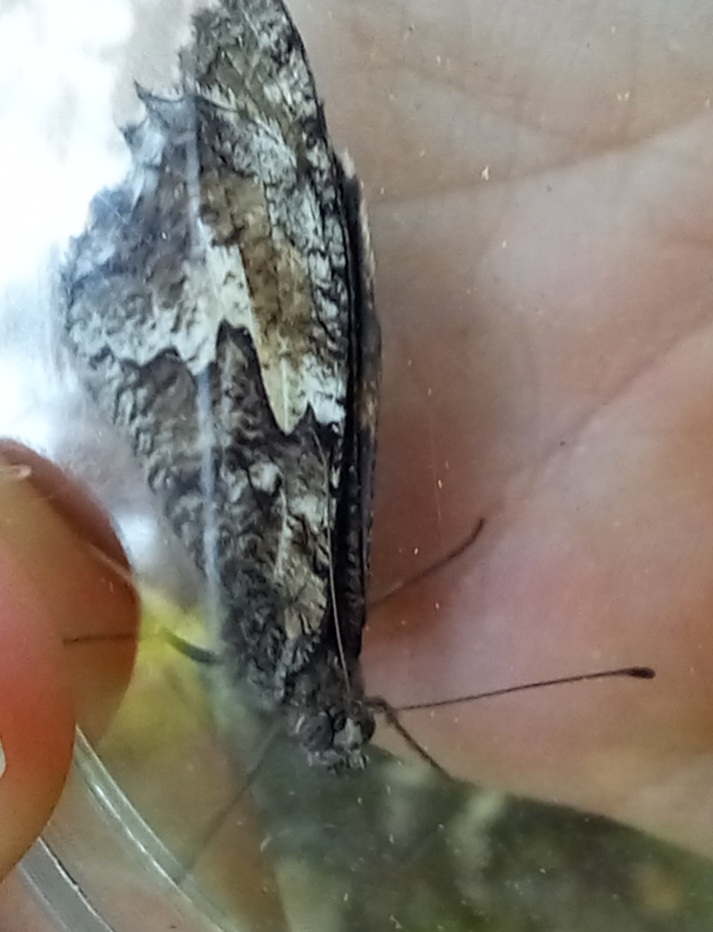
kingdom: Animalia
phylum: Arthropoda
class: Insecta
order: Lepidoptera
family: Nymphalidae
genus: Hipparchia
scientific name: Hipparchia semele
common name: Grayling
